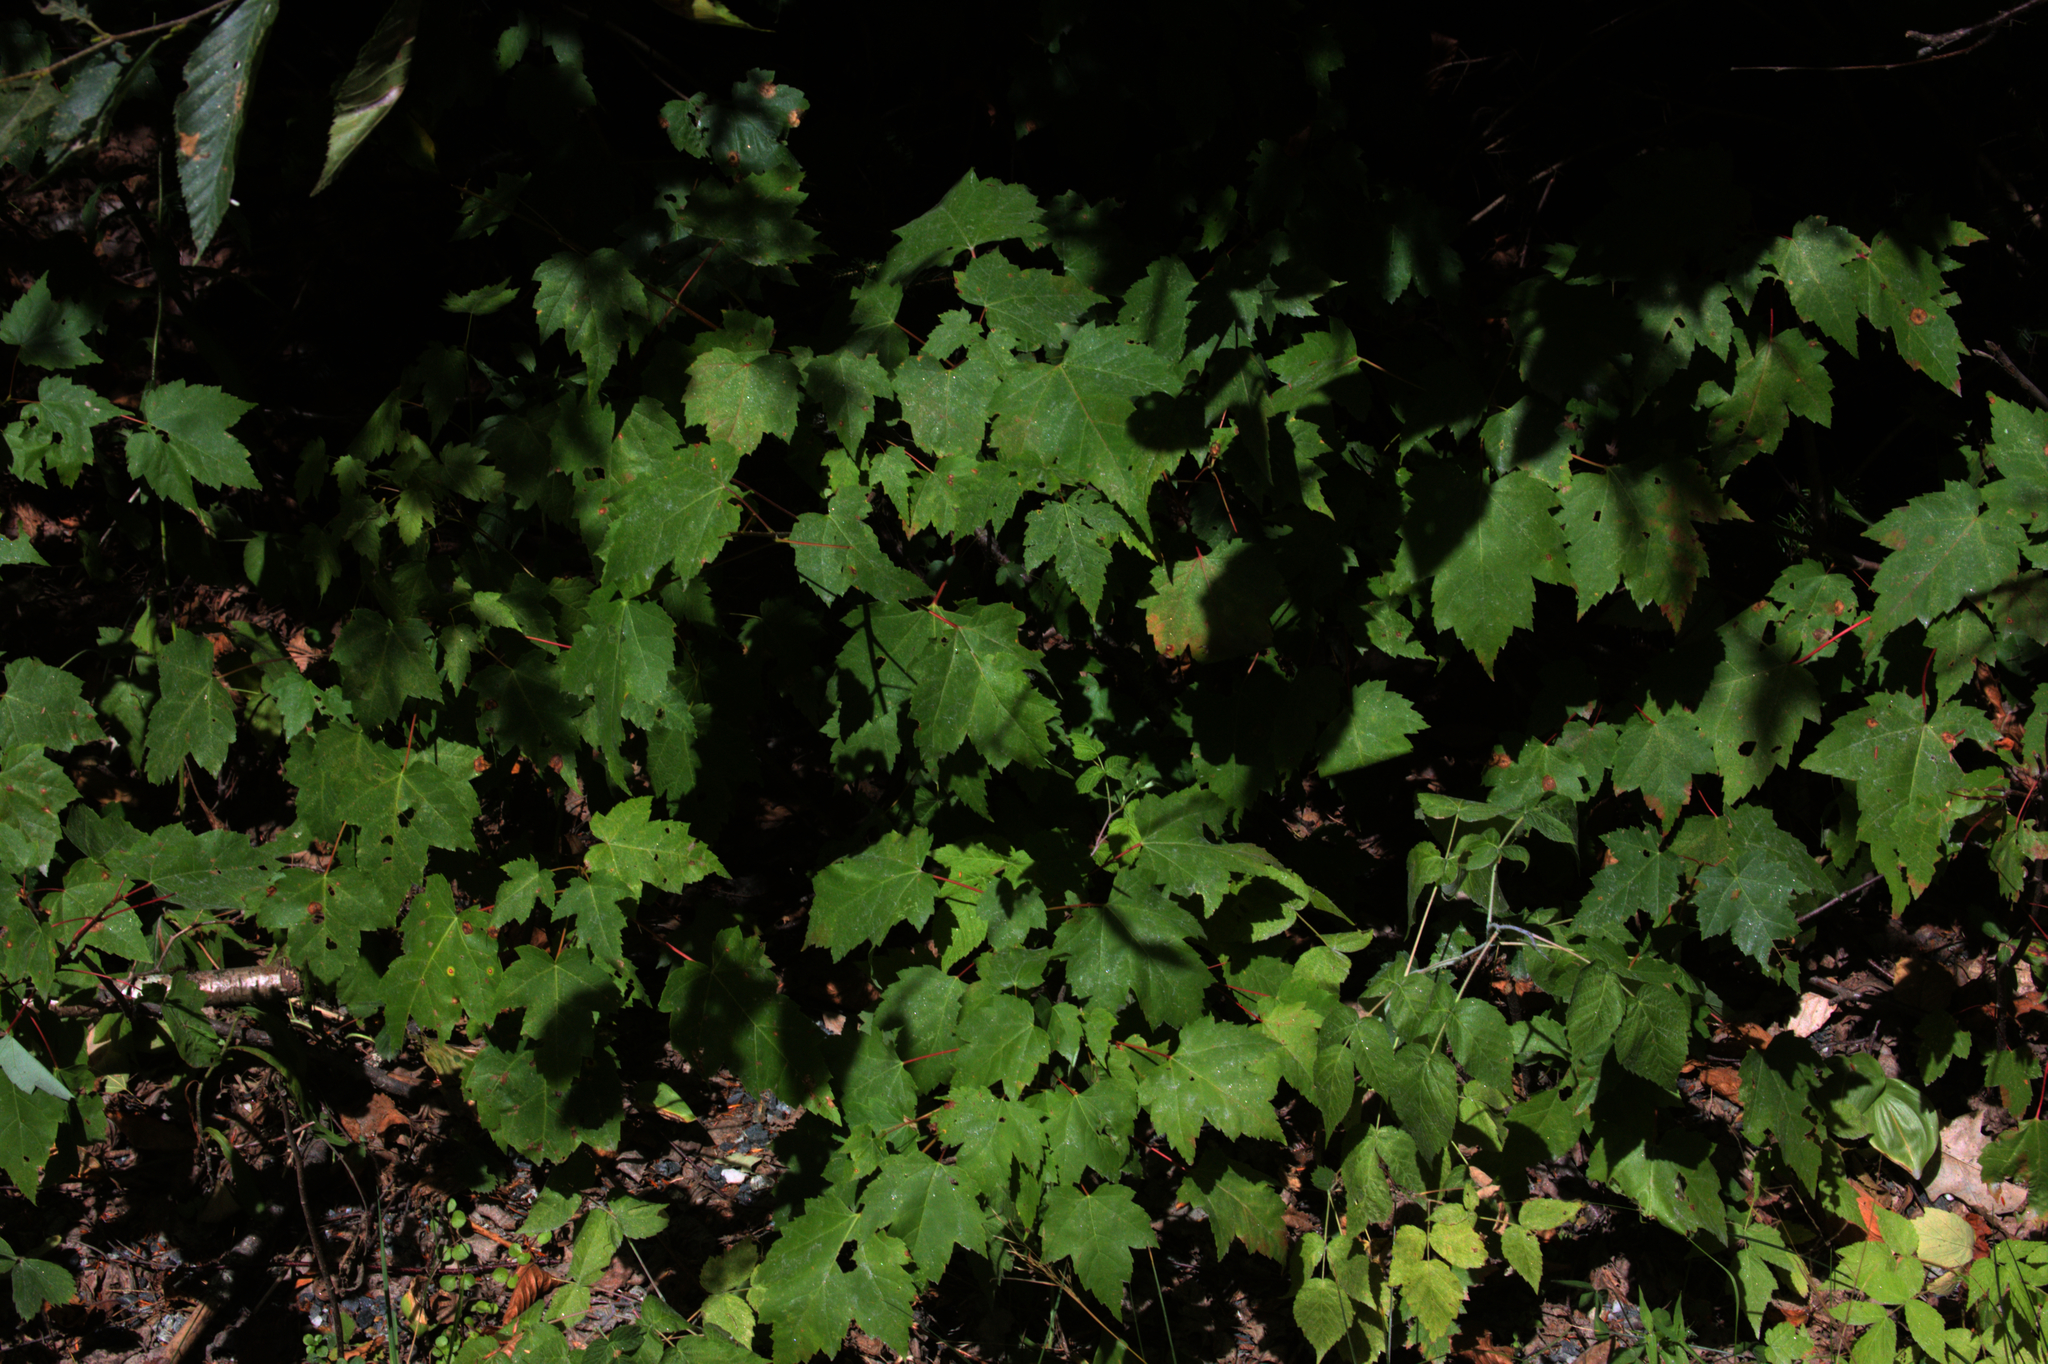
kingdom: Plantae
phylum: Tracheophyta
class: Magnoliopsida
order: Sapindales
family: Sapindaceae
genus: Acer
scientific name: Acer rubrum
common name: Red maple
